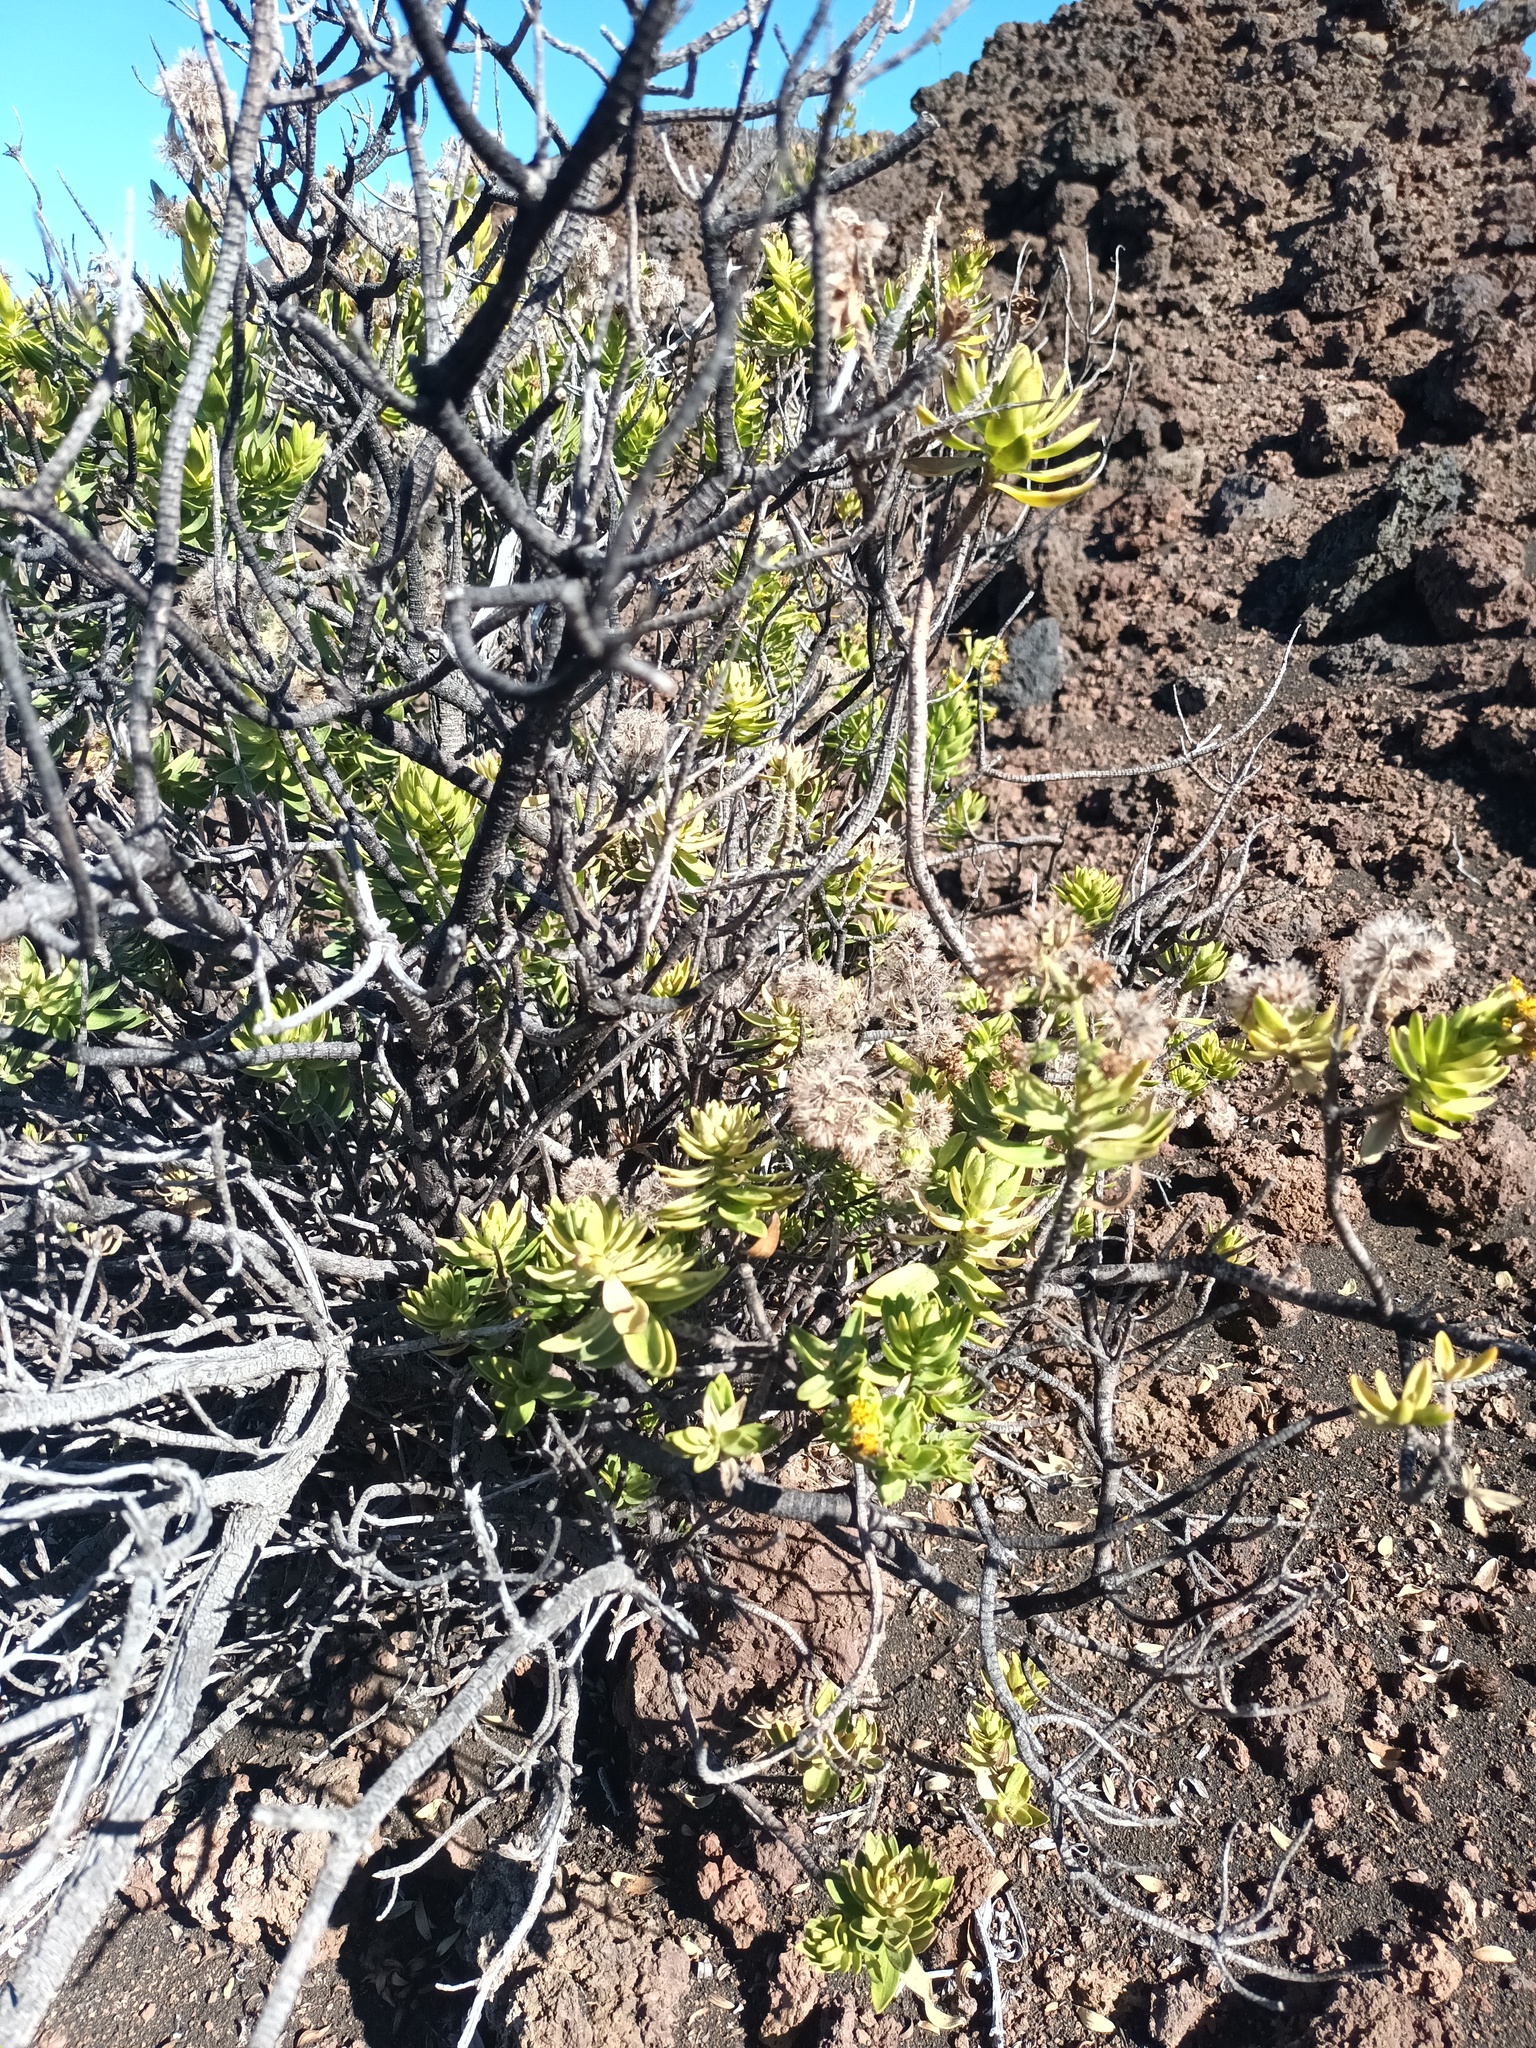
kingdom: Plantae
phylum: Tracheophyta
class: Magnoliopsida
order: Asterales
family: Asteraceae
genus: Dubautia
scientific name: Dubautia menziesii
